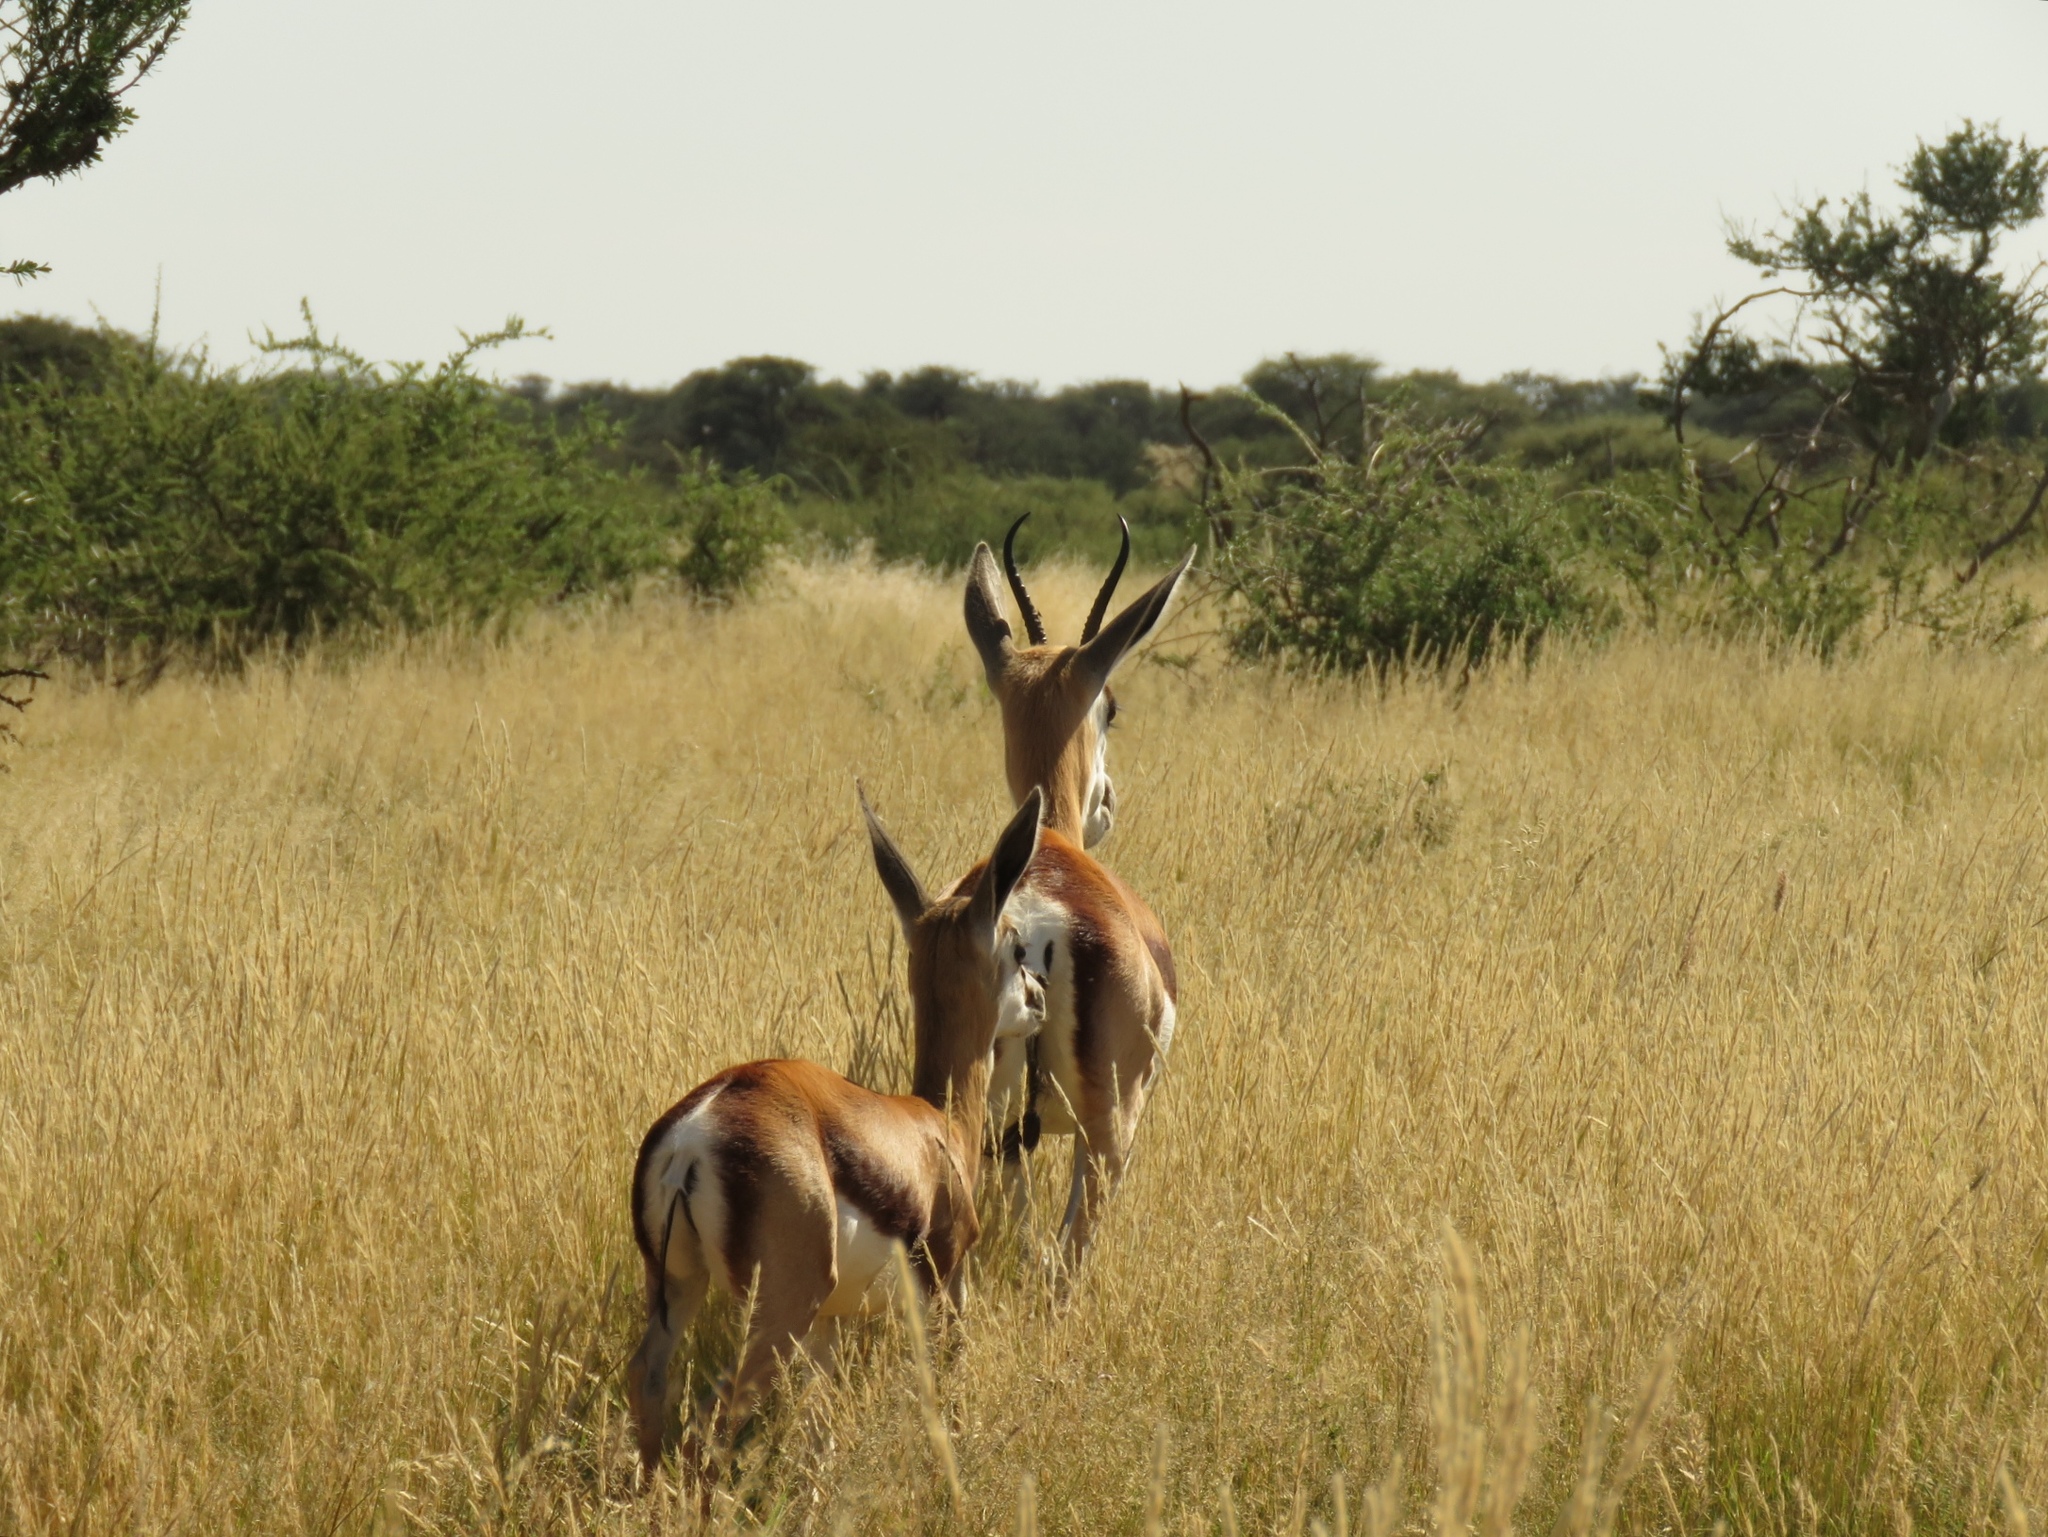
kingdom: Animalia
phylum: Chordata
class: Mammalia
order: Artiodactyla
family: Bovidae
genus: Antidorcas
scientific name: Antidorcas marsupialis
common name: Springbok
